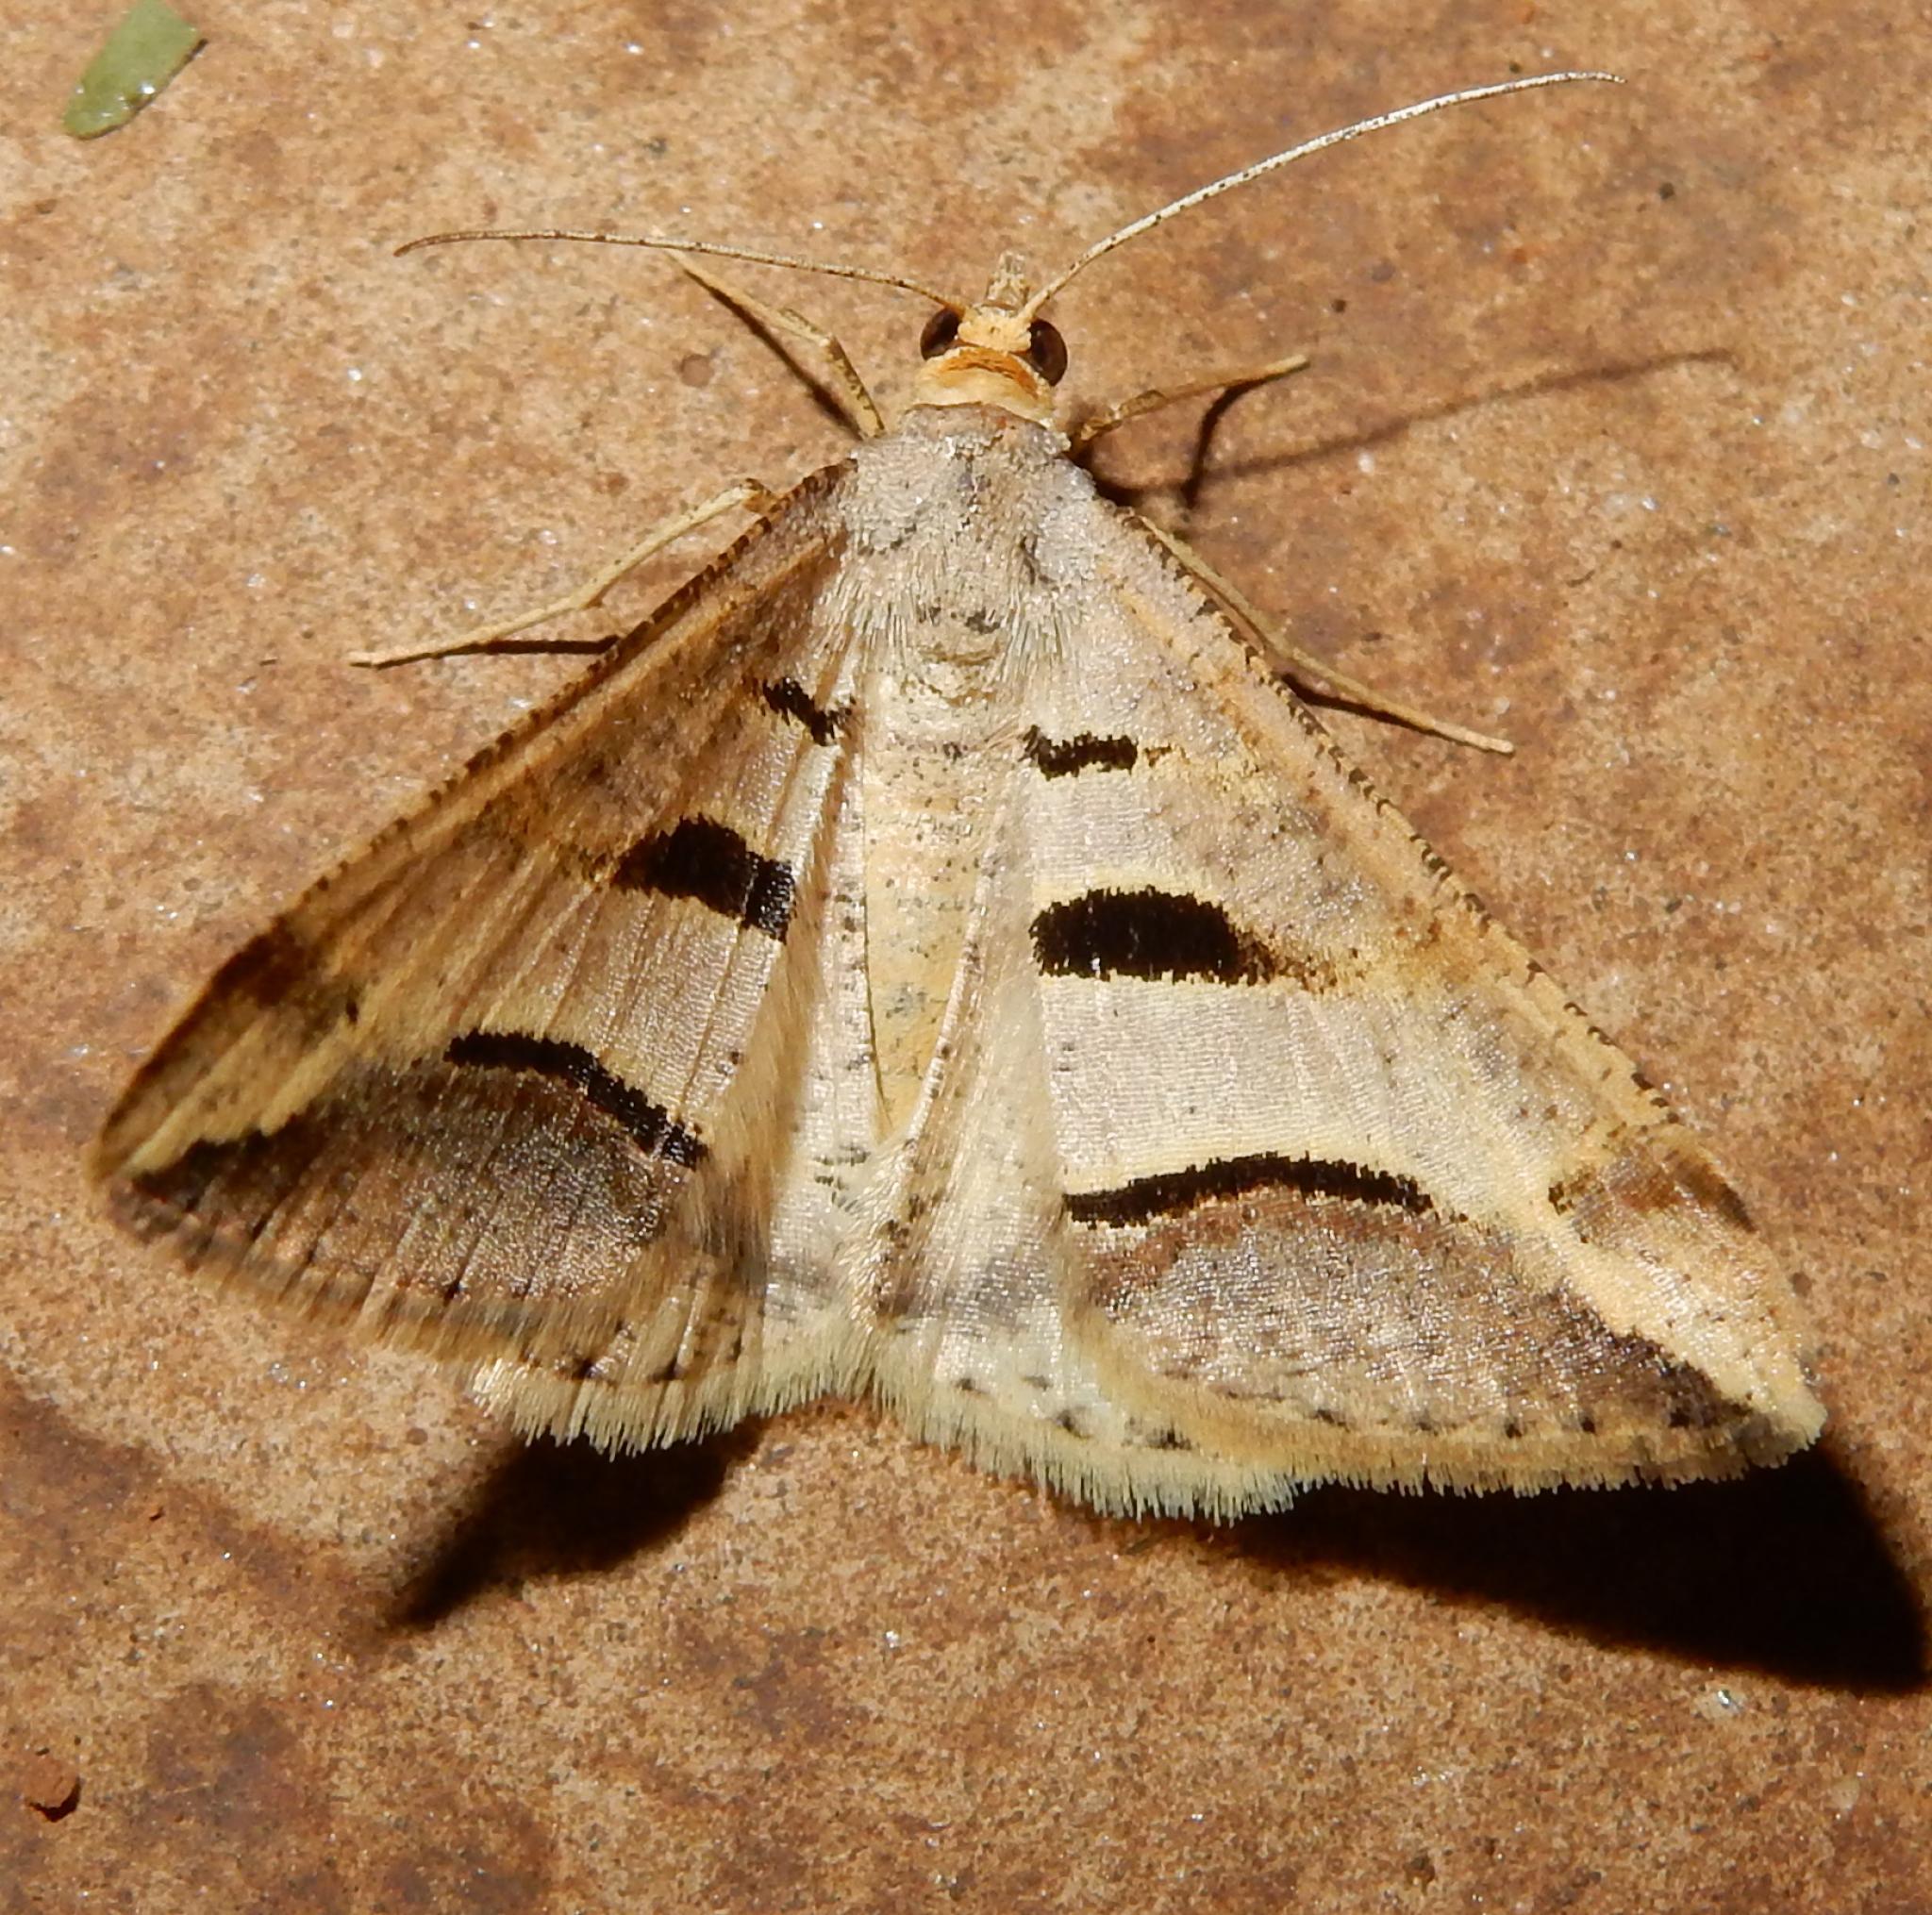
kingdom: Animalia
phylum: Arthropoda
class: Insecta
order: Lepidoptera
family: Geometridae
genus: Chiasmia
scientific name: Chiasmia subcurvaria
